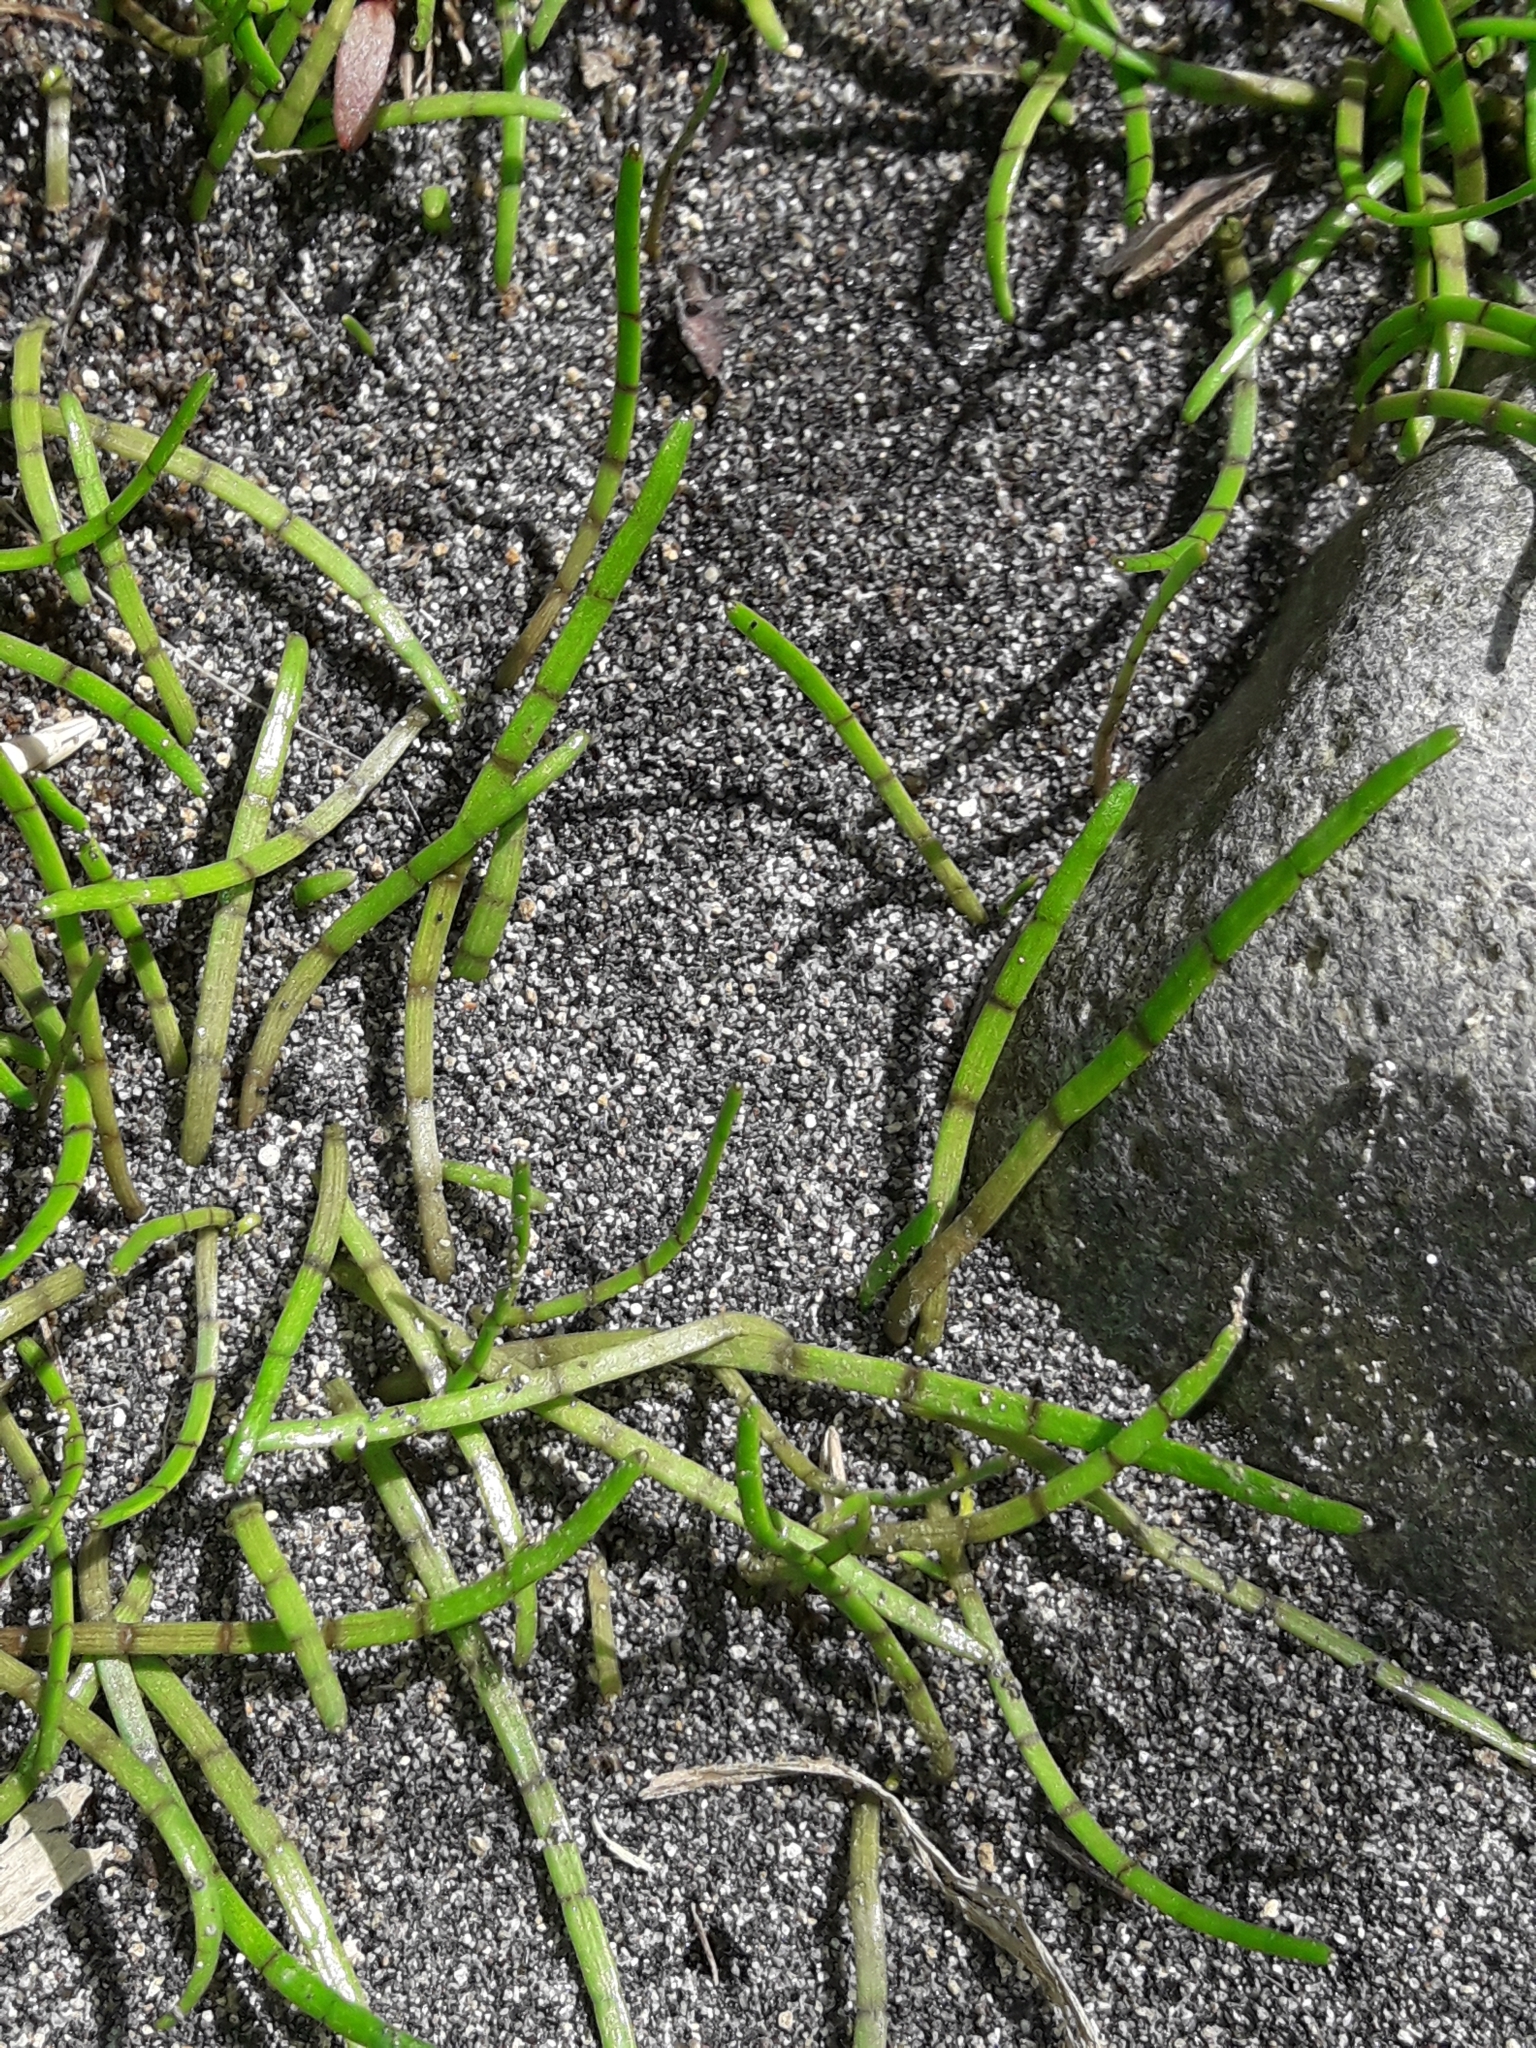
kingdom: Plantae
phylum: Tracheophyta
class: Magnoliopsida
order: Apiales
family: Apiaceae
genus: Lilaeopsis
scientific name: Lilaeopsis novae-zelandiae
